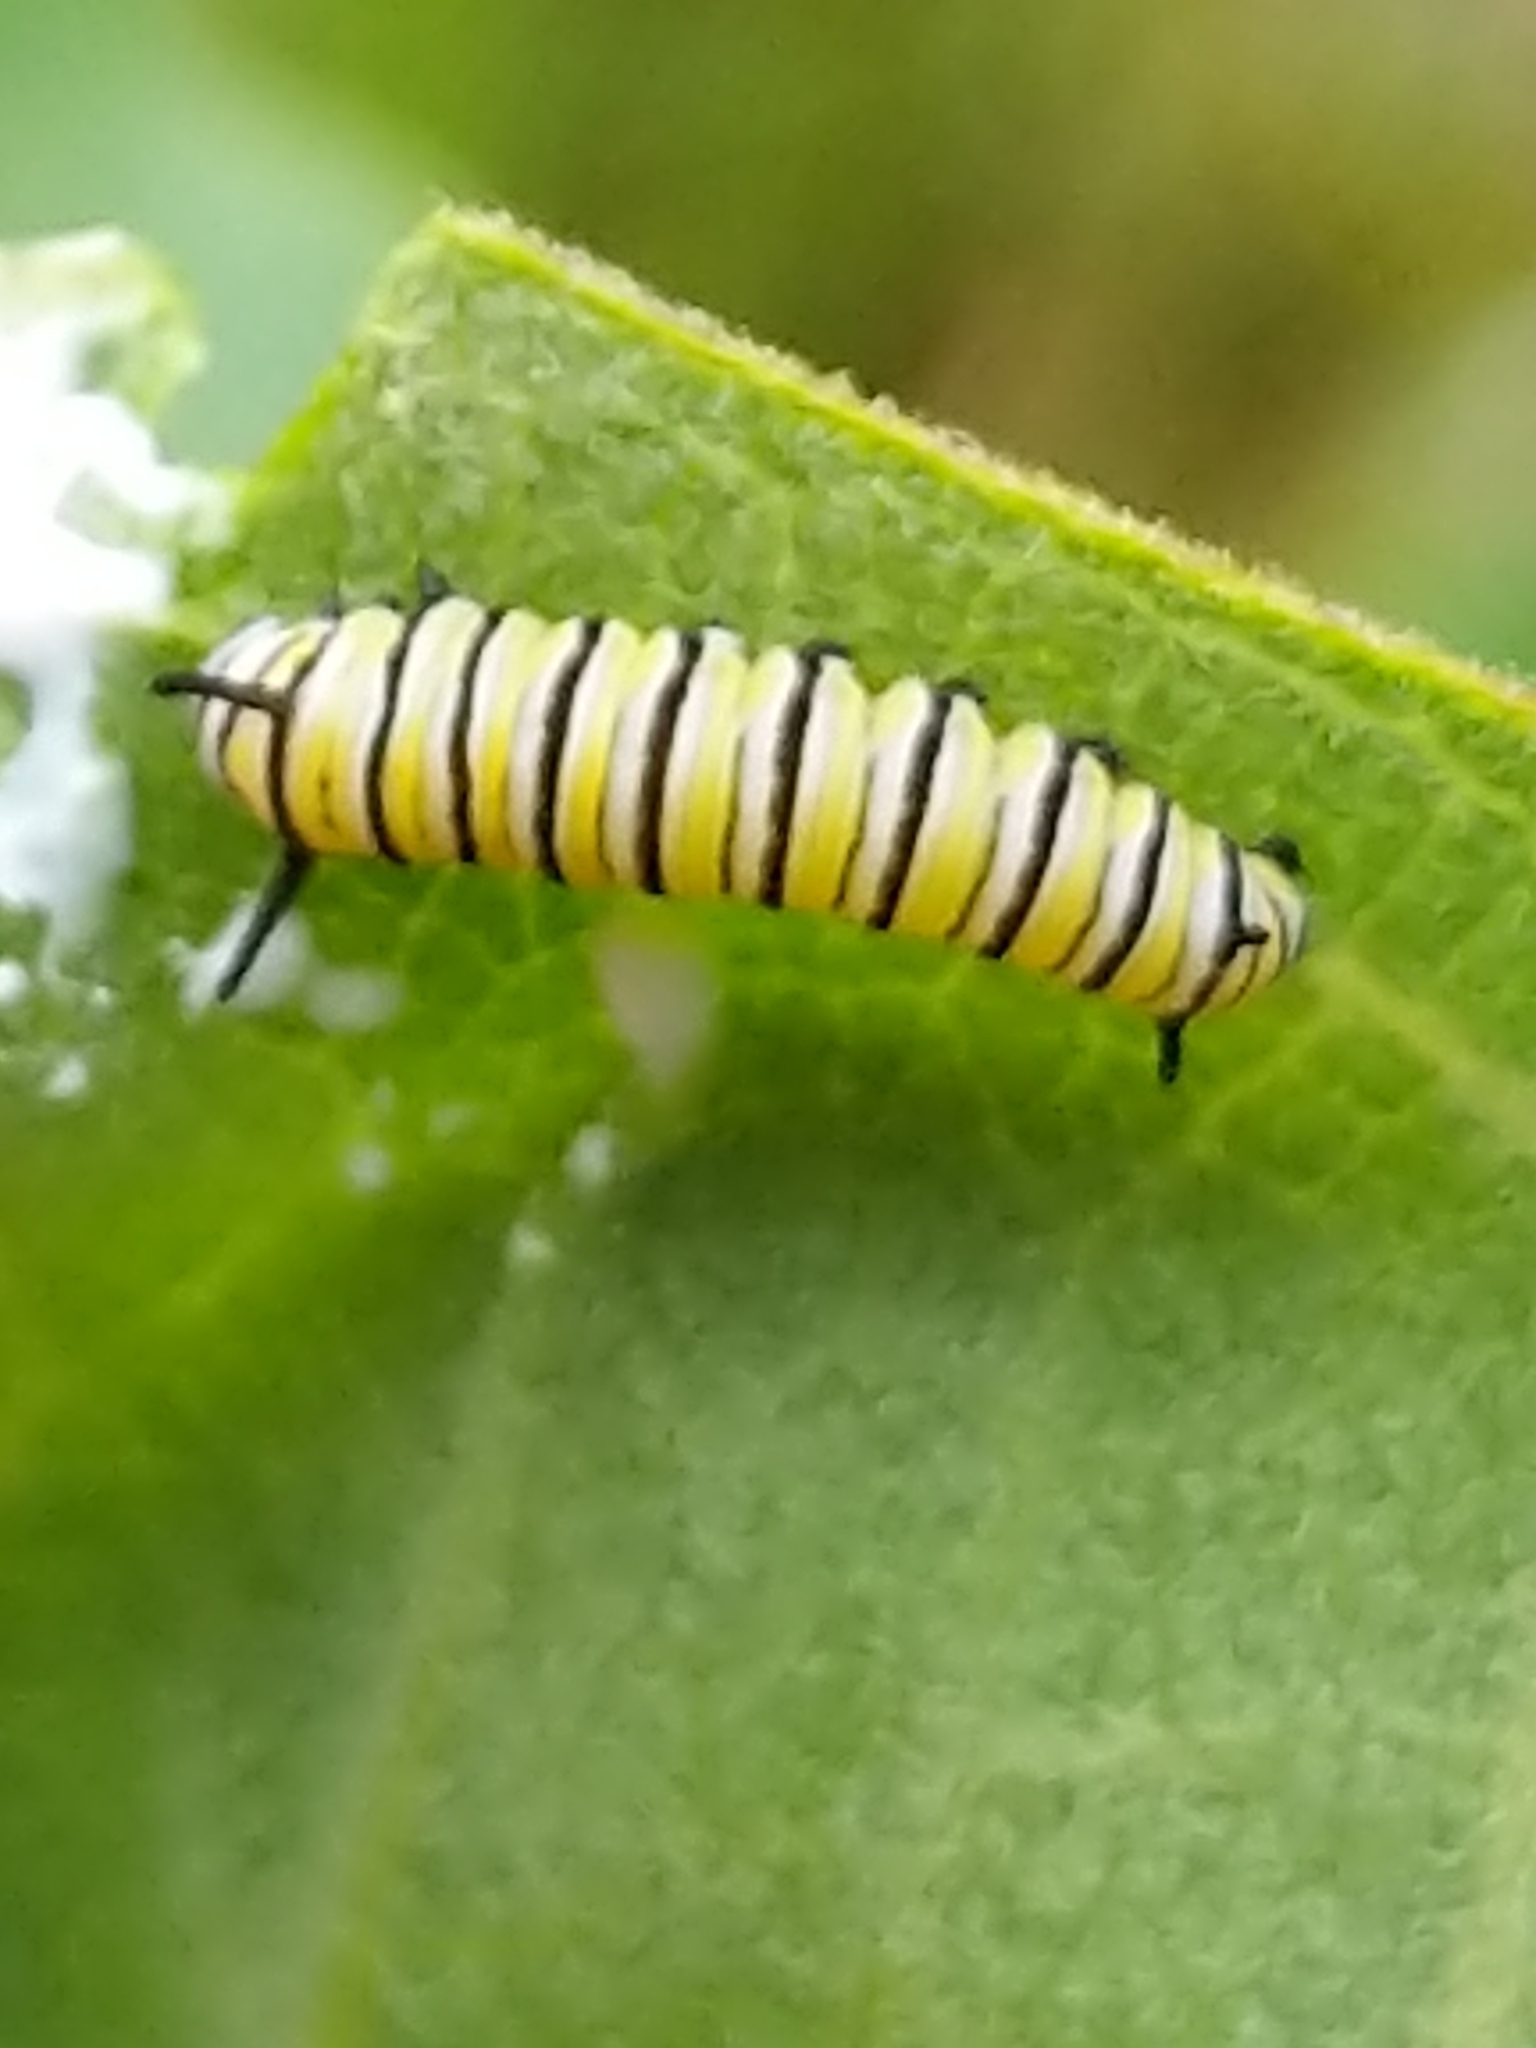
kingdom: Animalia
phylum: Arthropoda
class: Insecta
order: Lepidoptera
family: Nymphalidae
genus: Danaus
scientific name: Danaus plexippus
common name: Monarch
